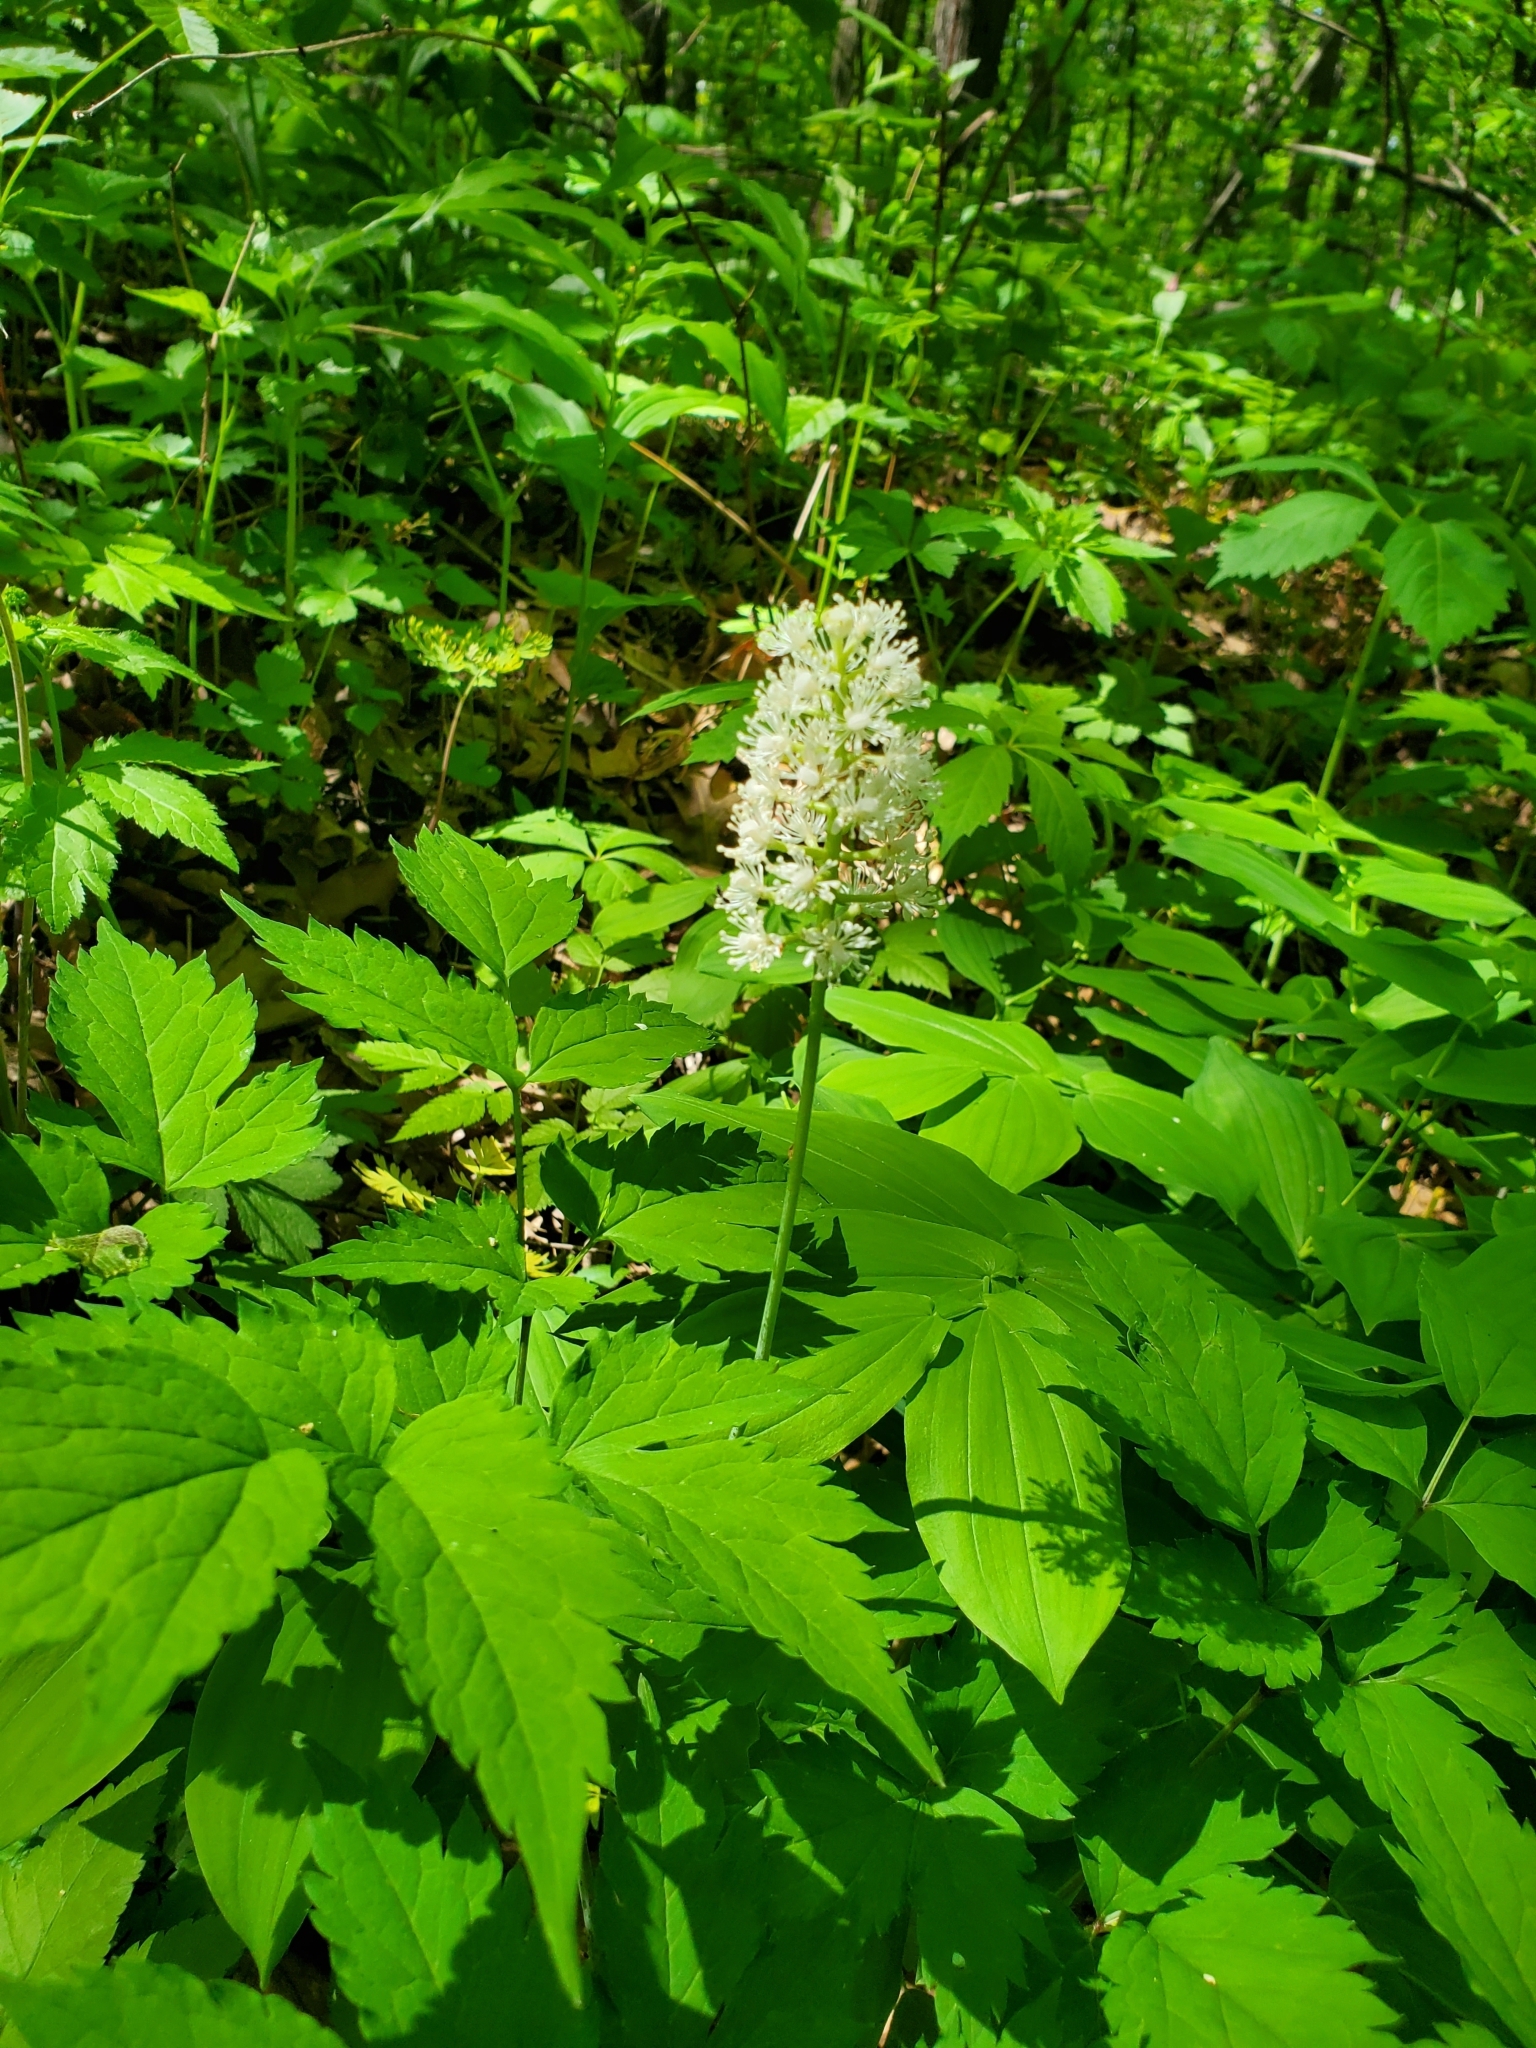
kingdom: Plantae
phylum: Tracheophyta
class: Magnoliopsida
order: Ranunculales
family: Ranunculaceae
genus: Actaea
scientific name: Actaea pachypoda
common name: Doll's-eyes
